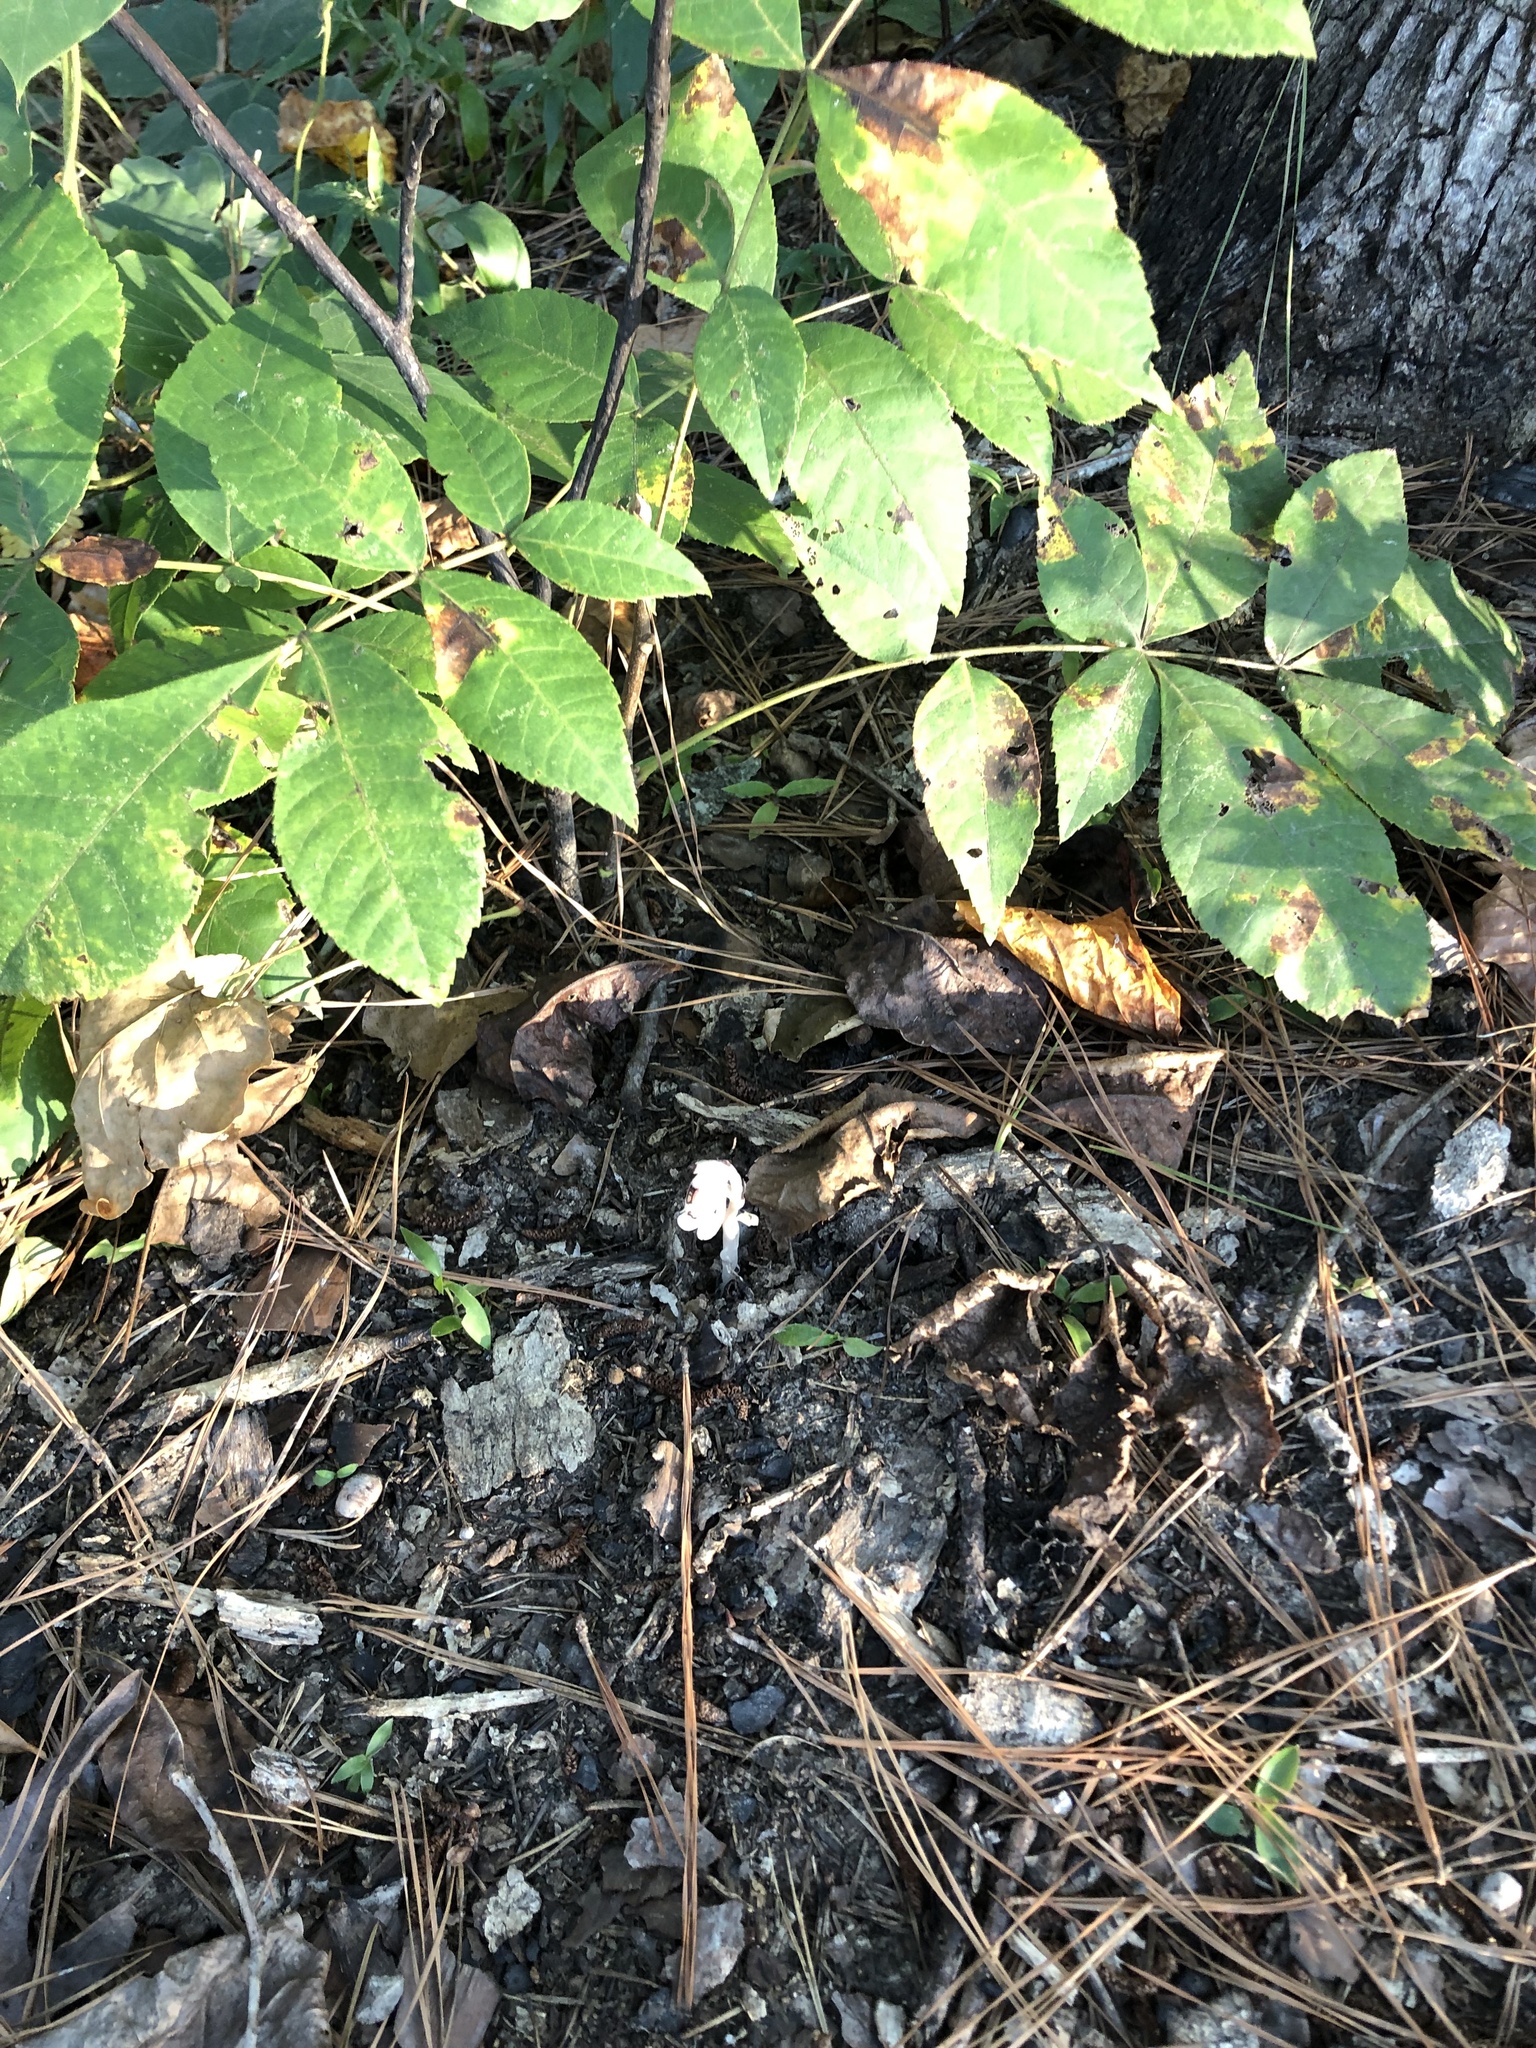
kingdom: Plantae
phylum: Tracheophyta
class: Magnoliopsida
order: Ericales
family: Ericaceae
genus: Monotropa
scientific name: Monotropa uniflora
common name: Convulsion root
